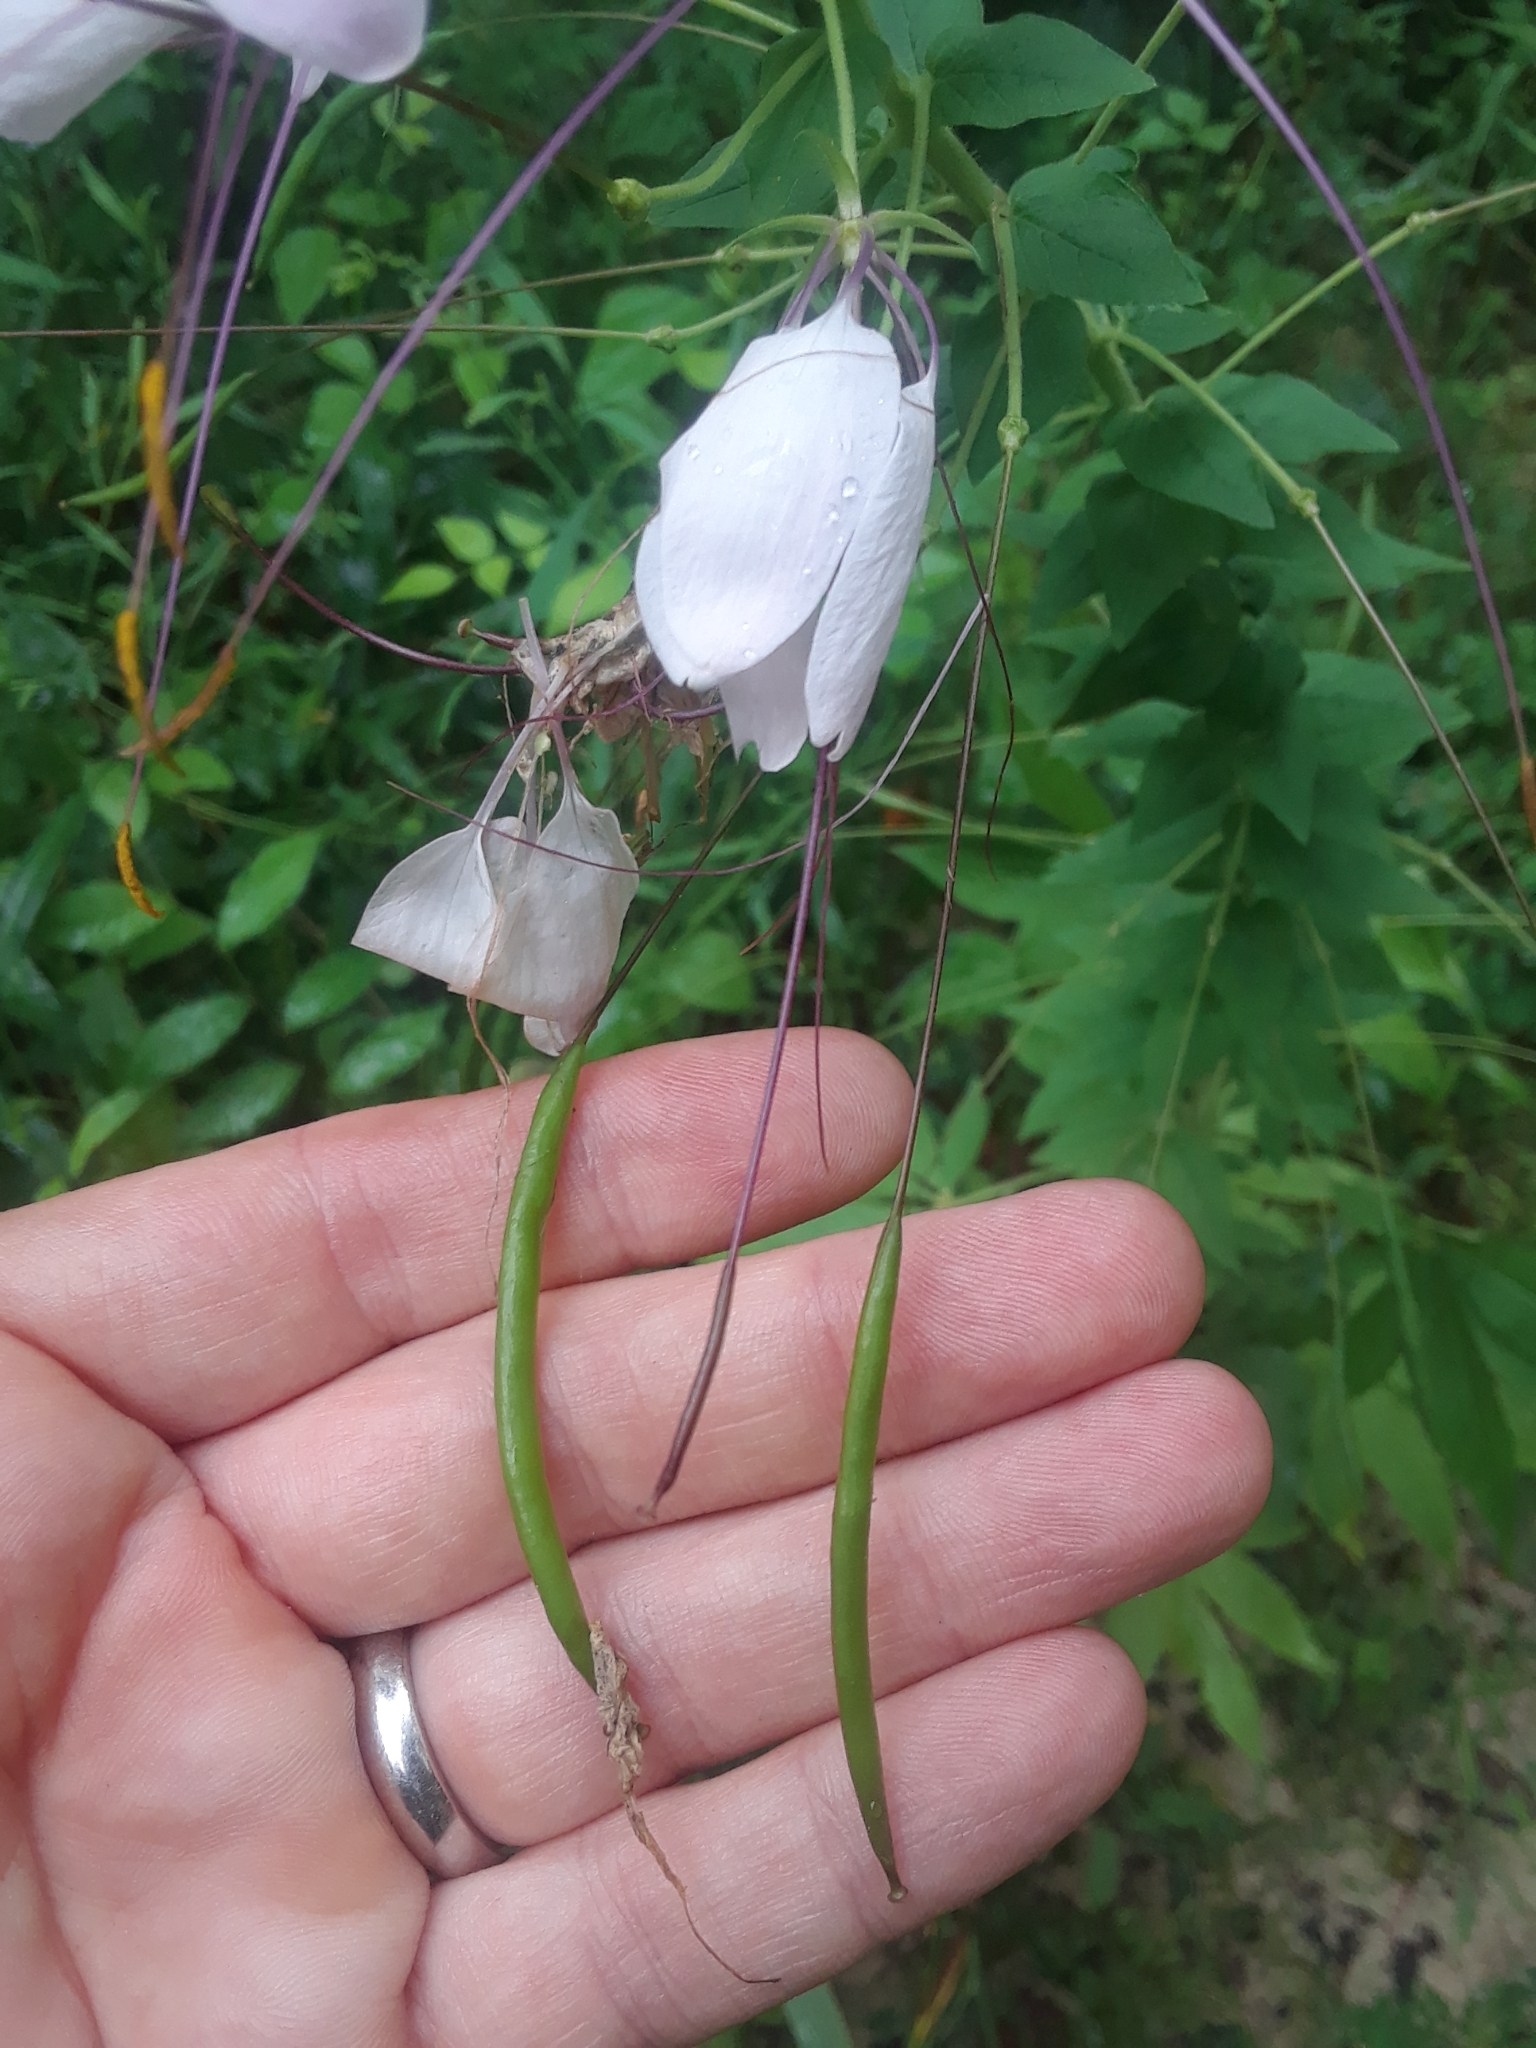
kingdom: Plantae
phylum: Tracheophyta
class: Magnoliopsida
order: Brassicales
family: Cleomaceae
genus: Tarenaya
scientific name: Tarenaya houtteana
